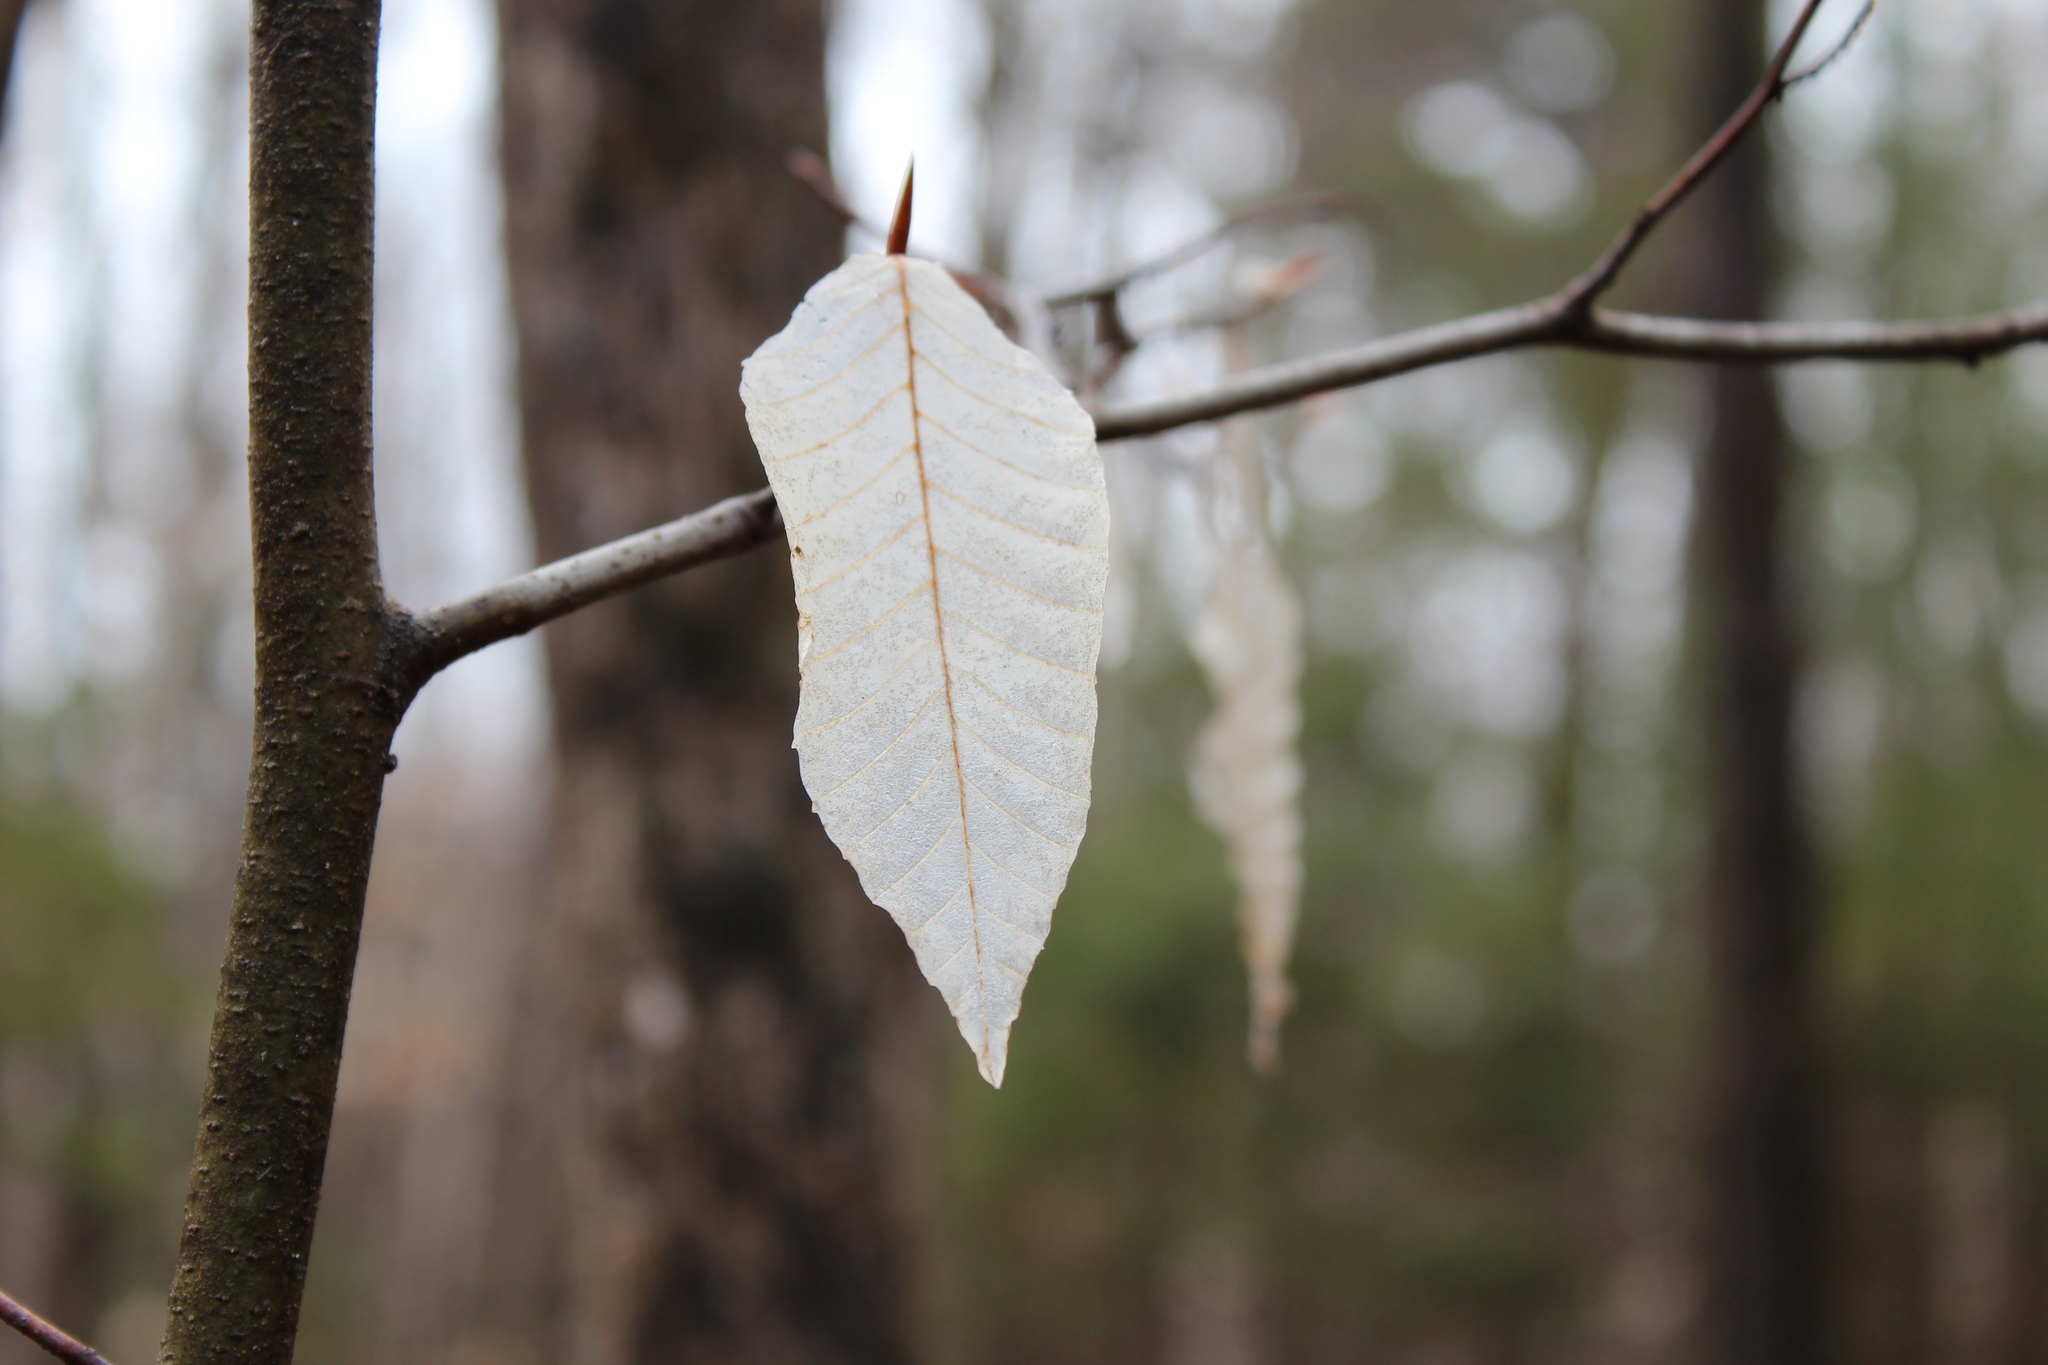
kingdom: Plantae
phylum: Tracheophyta
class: Magnoliopsida
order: Fagales
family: Fagaceae
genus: Fagus
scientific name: Fagus grandifolia
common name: American beech
